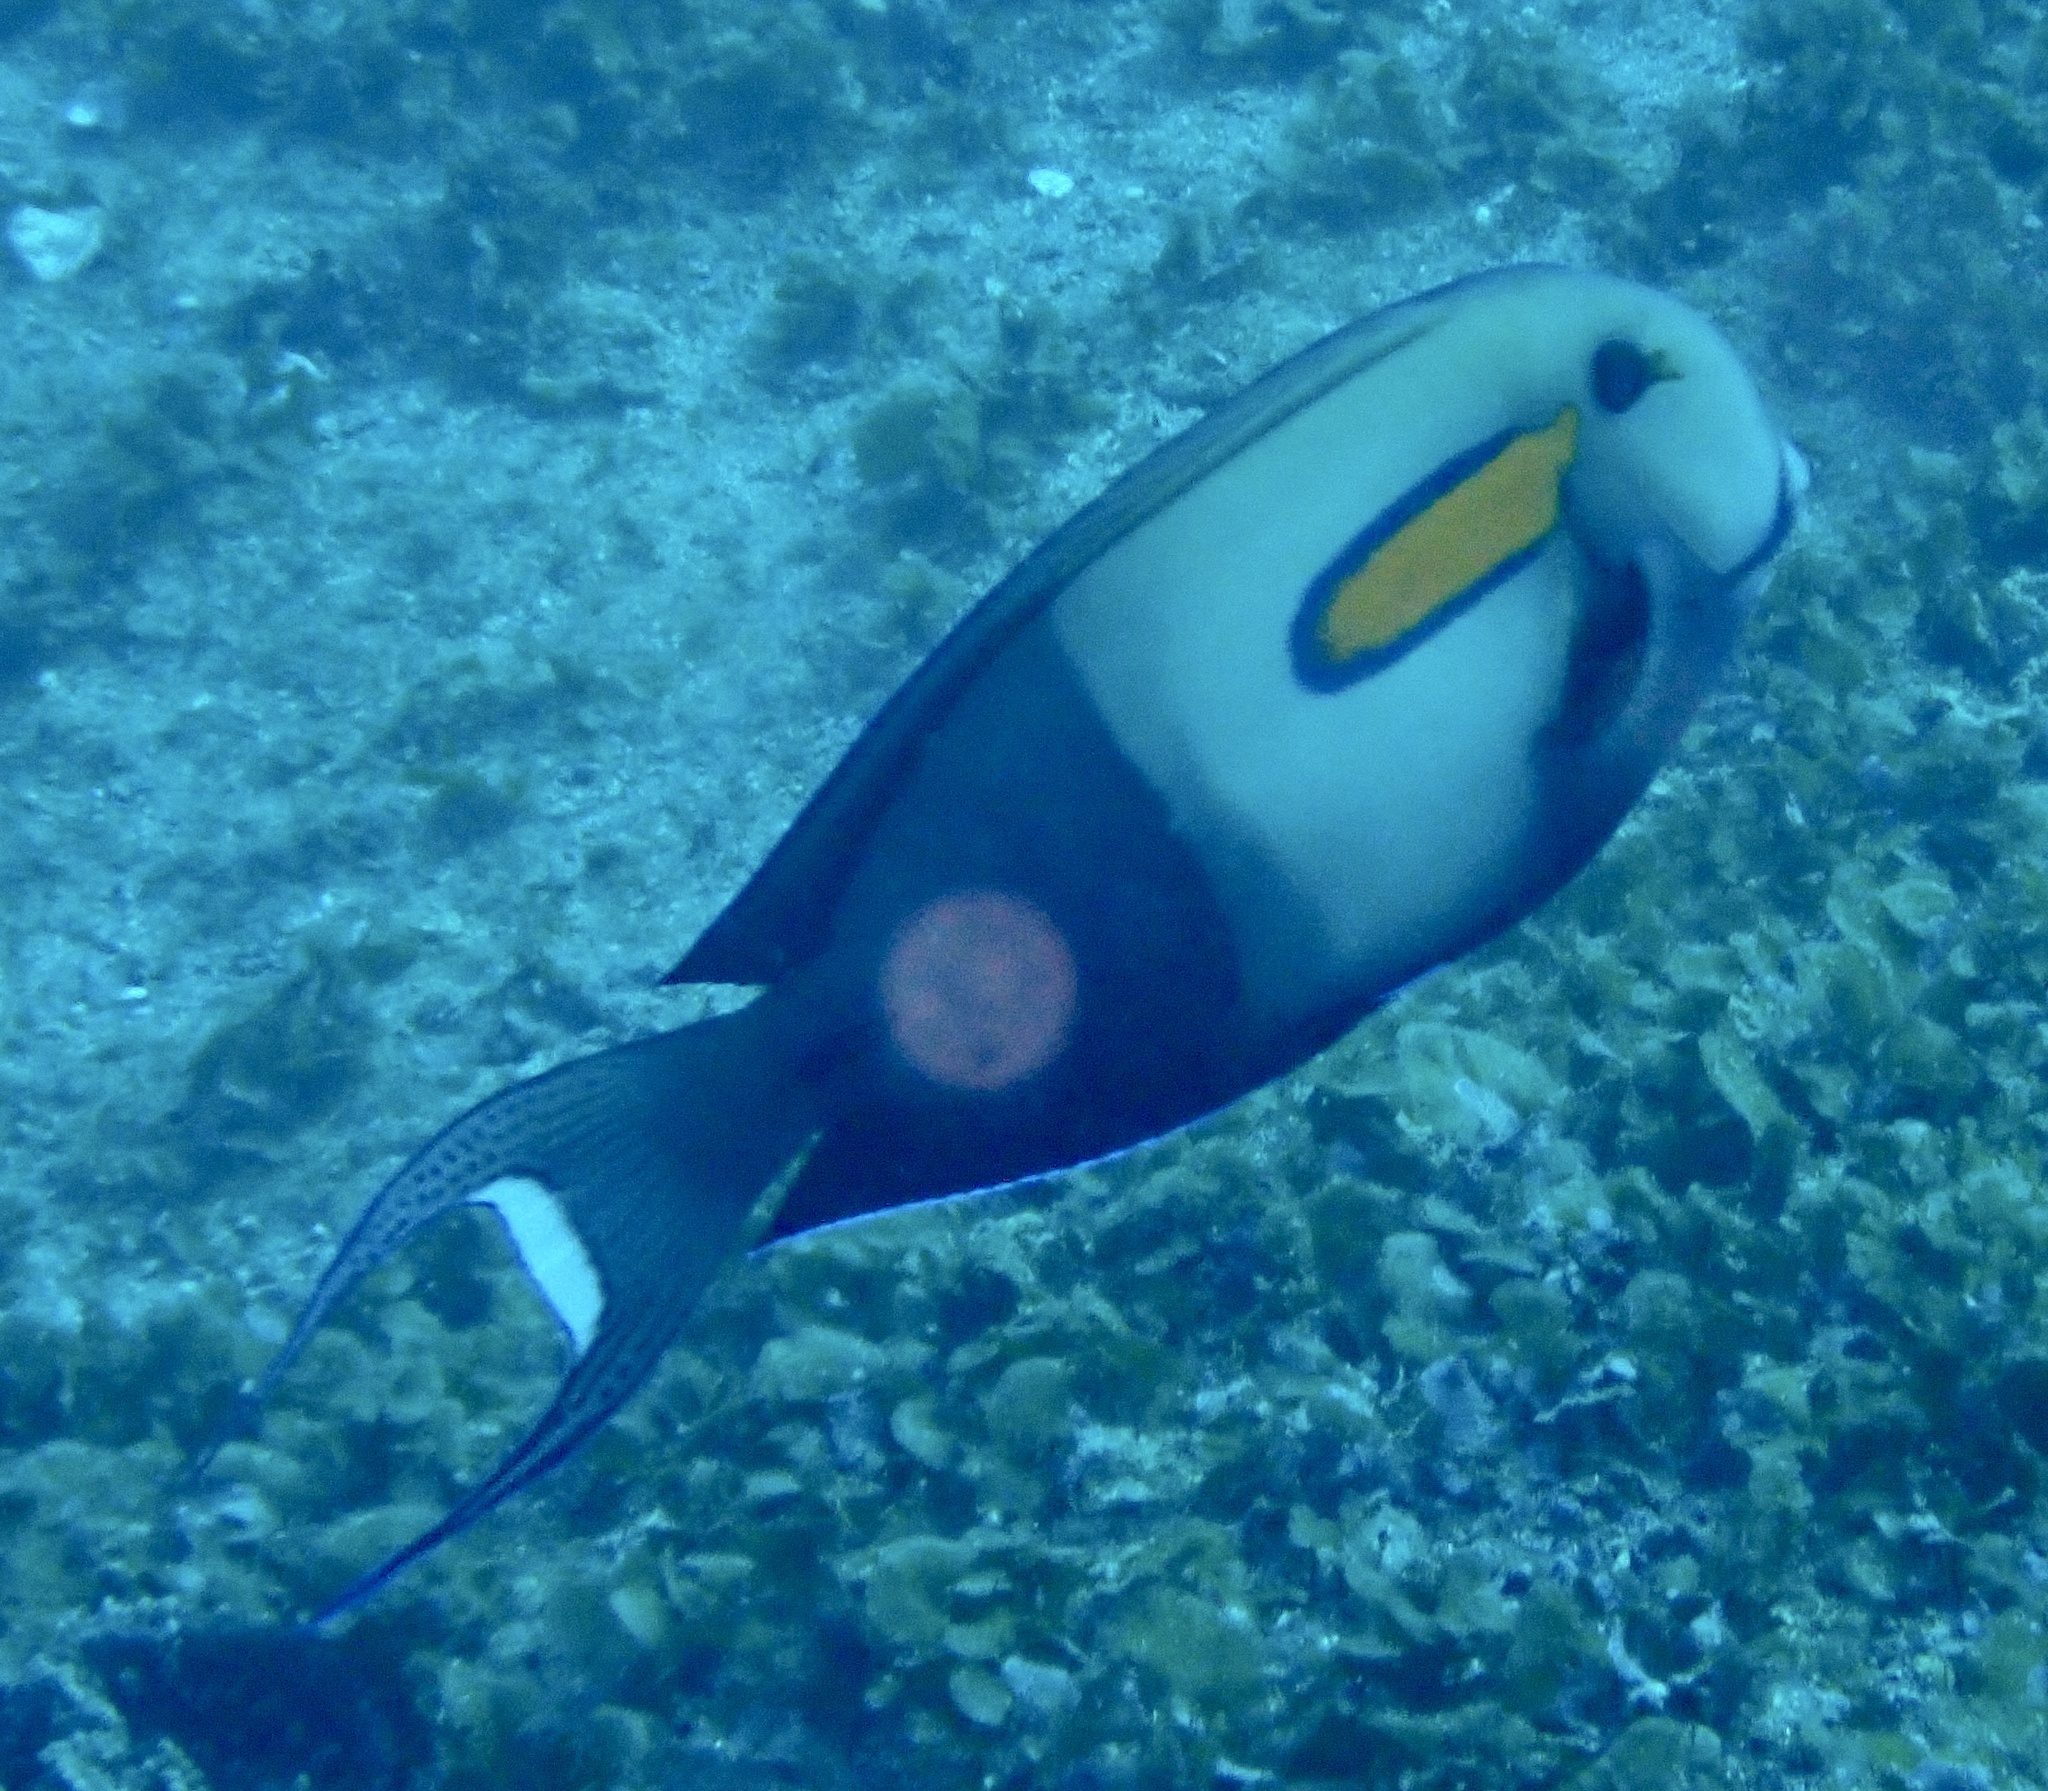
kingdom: Animalia
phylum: Chordata
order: Perciformes
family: Acanthuridae
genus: Acanthurus
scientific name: Acanthurus olivaceus
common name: Gendarme fish
